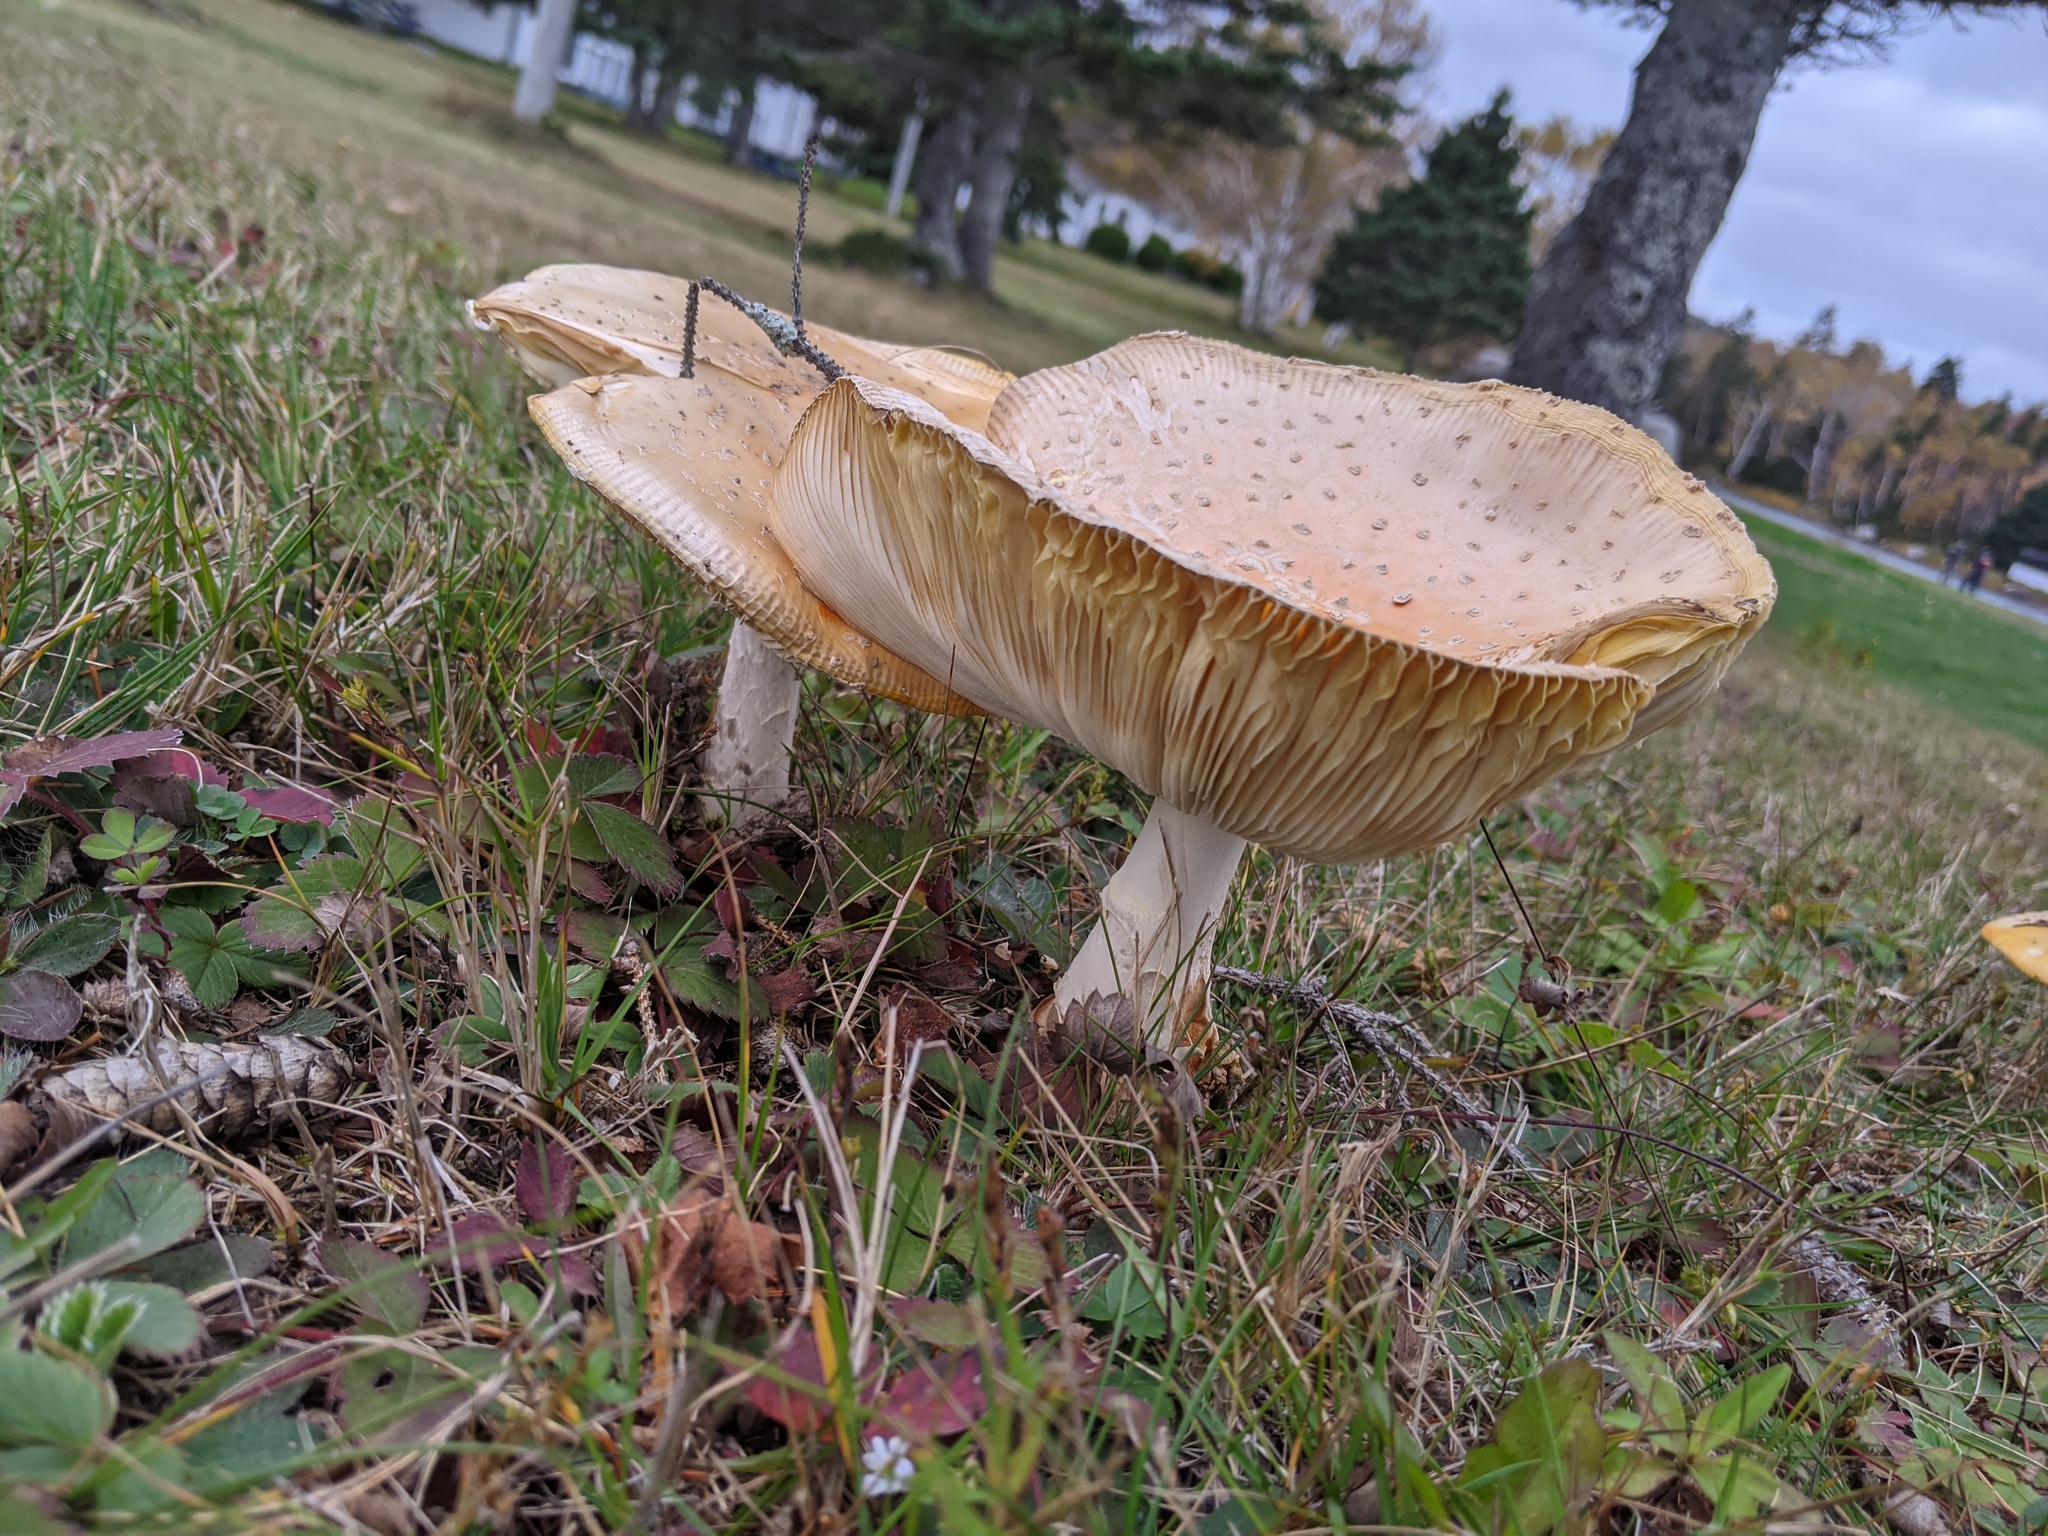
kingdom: Fungi
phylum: Basidiomycota
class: Agaricomycetes
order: Agaricales
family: Amanitaceae
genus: Amanita
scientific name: Amanita muscaria
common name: Fly agaric
